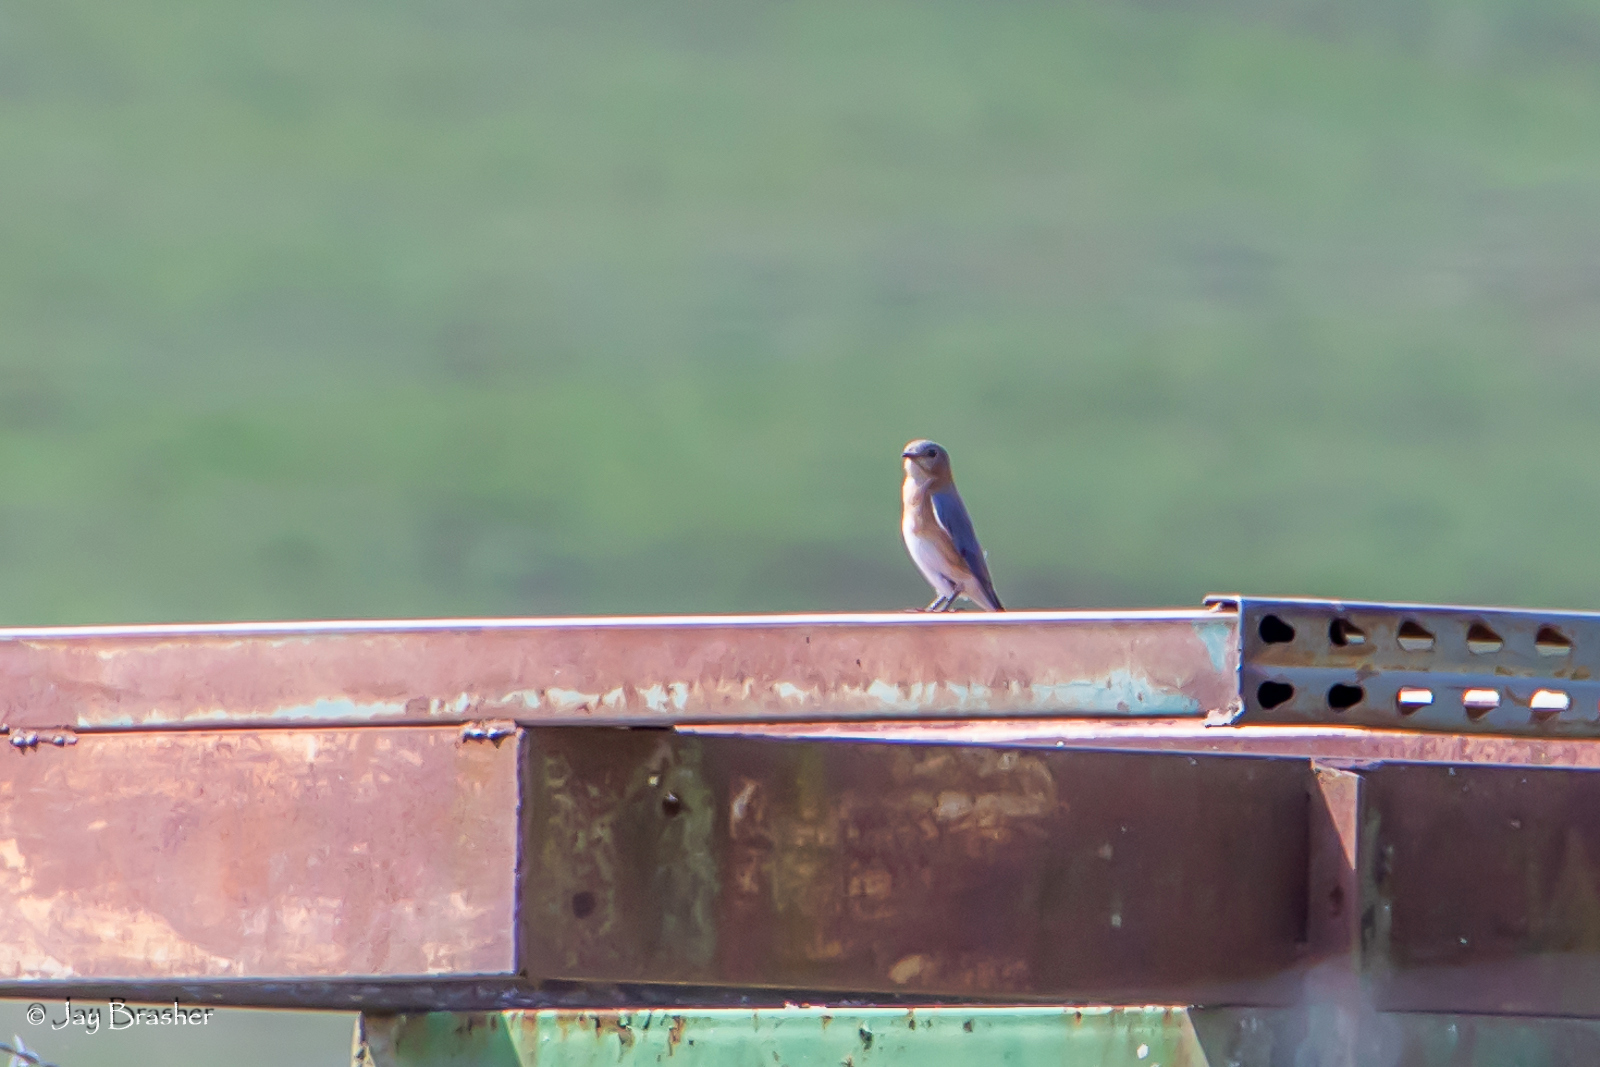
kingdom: Animalia
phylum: Chordata
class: Aves
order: Passeriformes
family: Turdidae
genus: Sialia
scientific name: Sialia sialis
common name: Eastern bluebird
